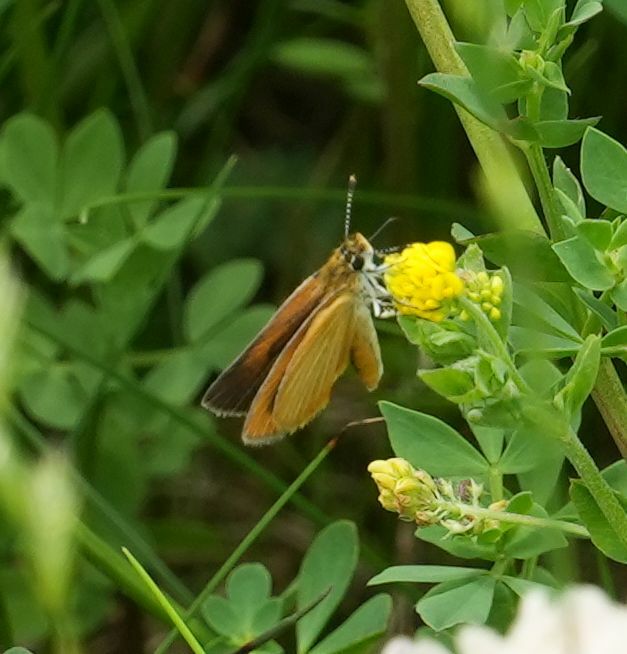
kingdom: Animalia
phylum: Arthropoda
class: Insecta
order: Lepidoptera
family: Hesperiidae
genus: Ancyloxypha
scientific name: Ancyloxypha numitor
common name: Least skipper
